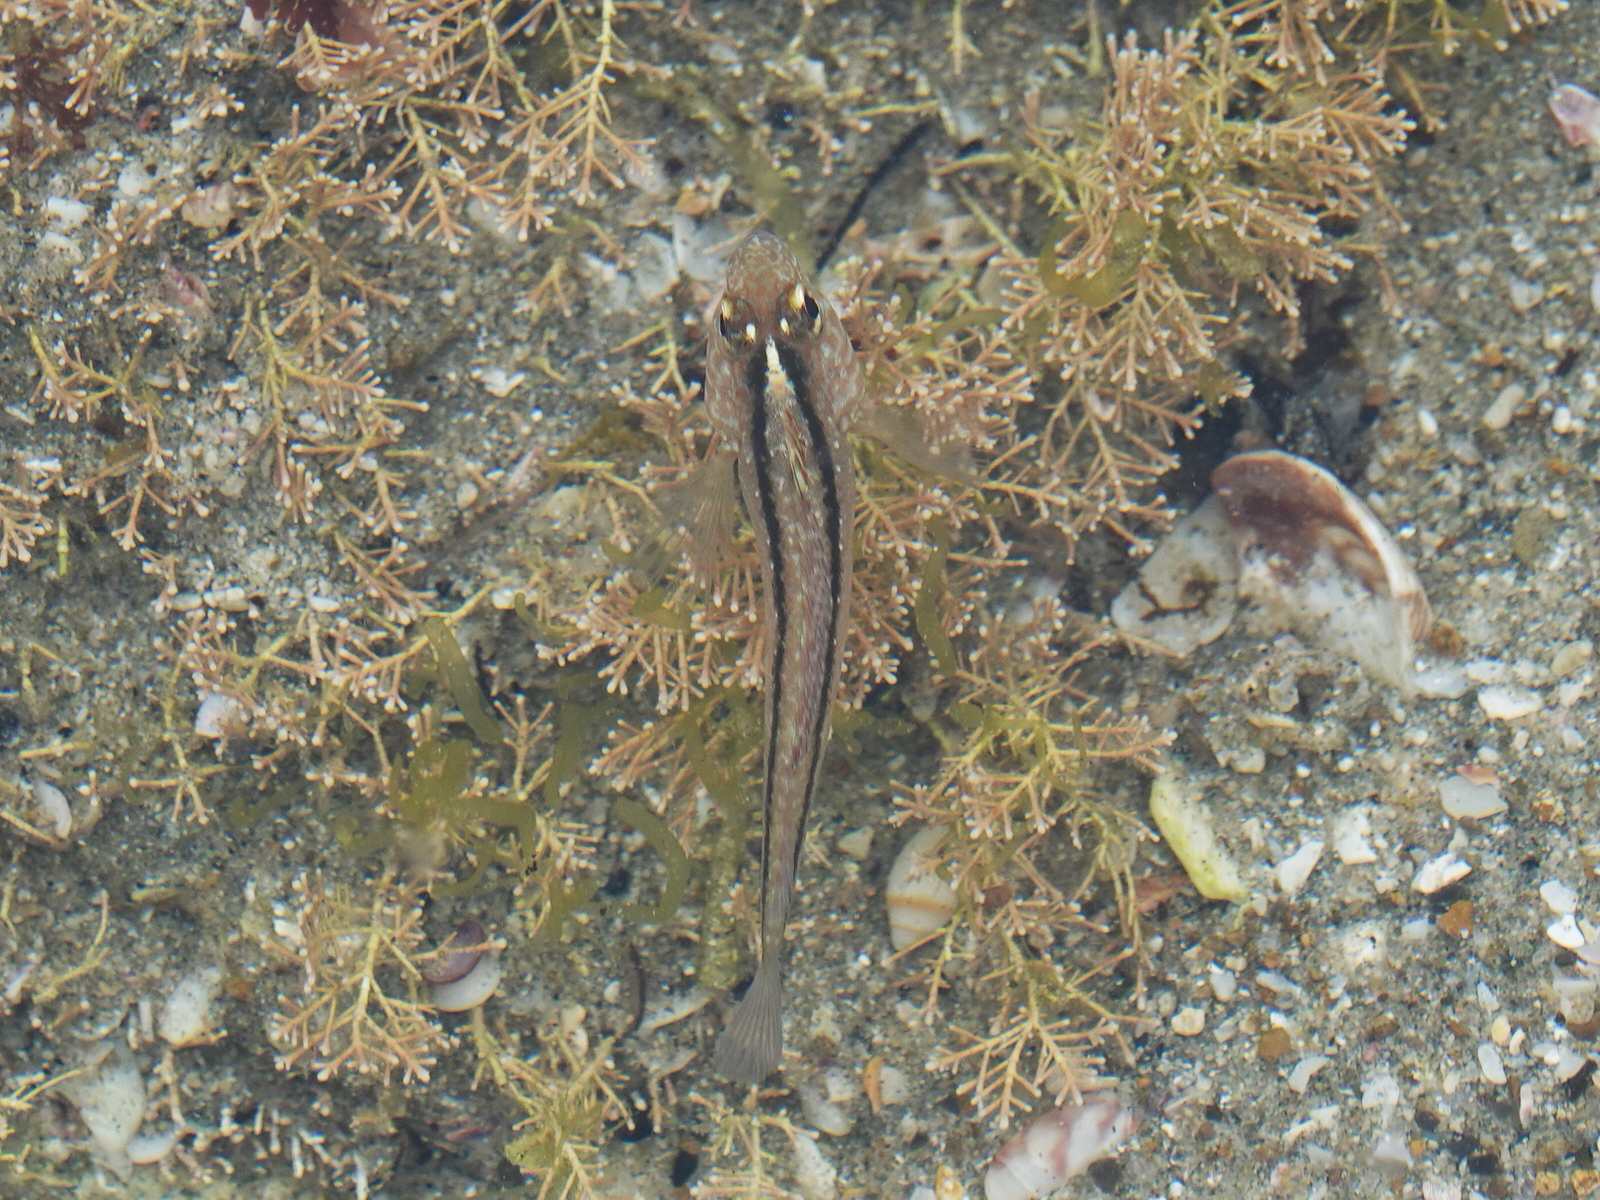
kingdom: Animalia
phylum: Chordata
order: Perciformes
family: Tripterygiidae
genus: Forsterygion
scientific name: Forsterygion lapillum
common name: Common triplefin
